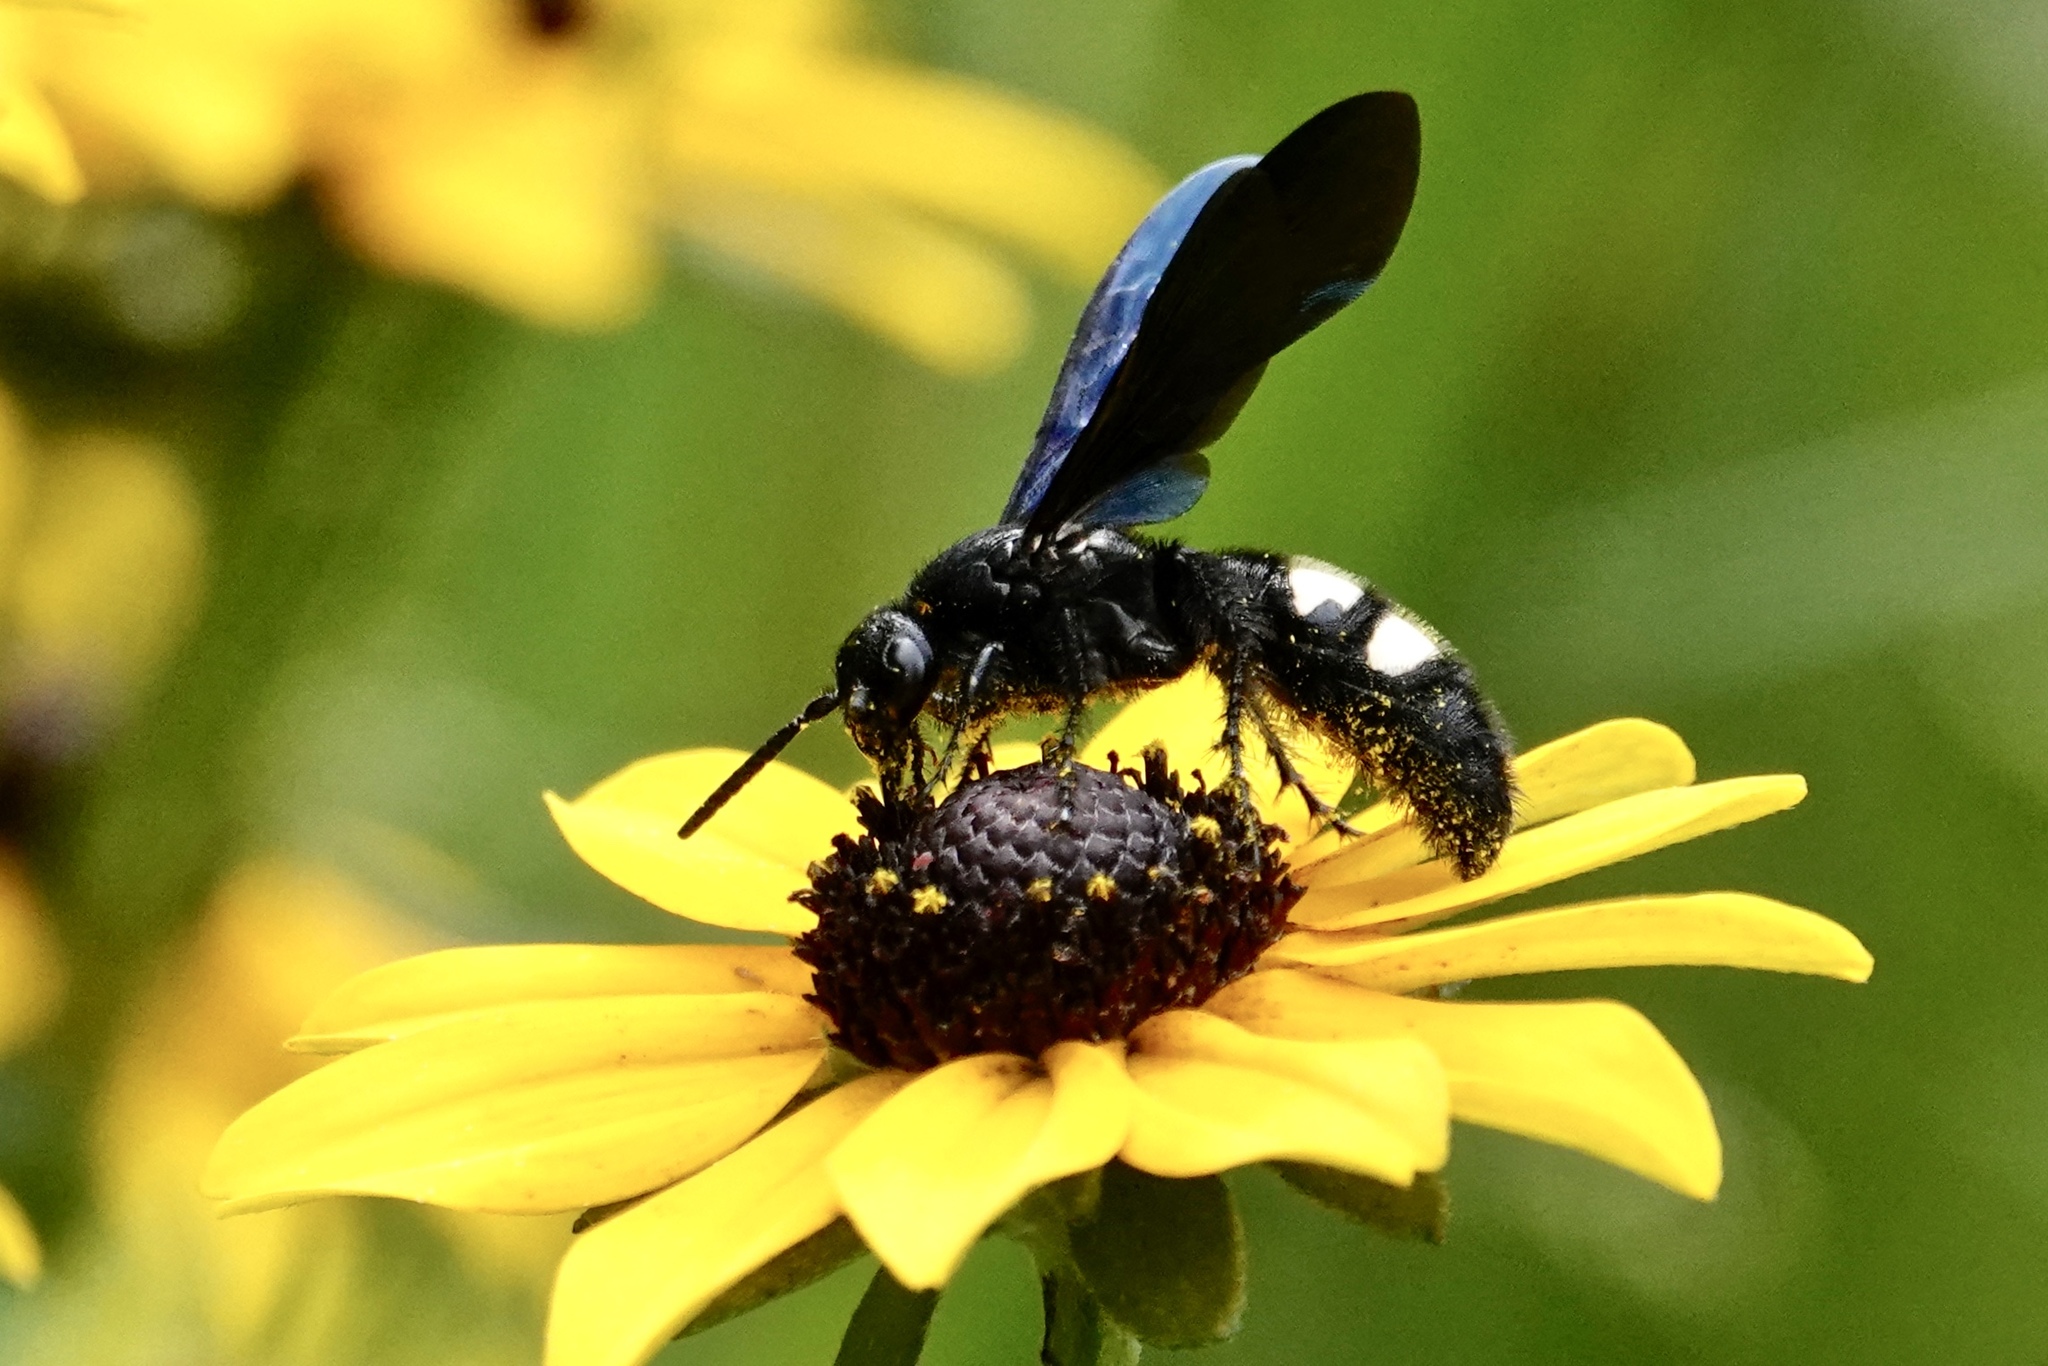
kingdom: Animalia
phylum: Arthropoda
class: Insecta
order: Hymenoptera
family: Scoliidae
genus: Scolia
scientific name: Scolia bicincta
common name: Double-banded scoliid wasp
